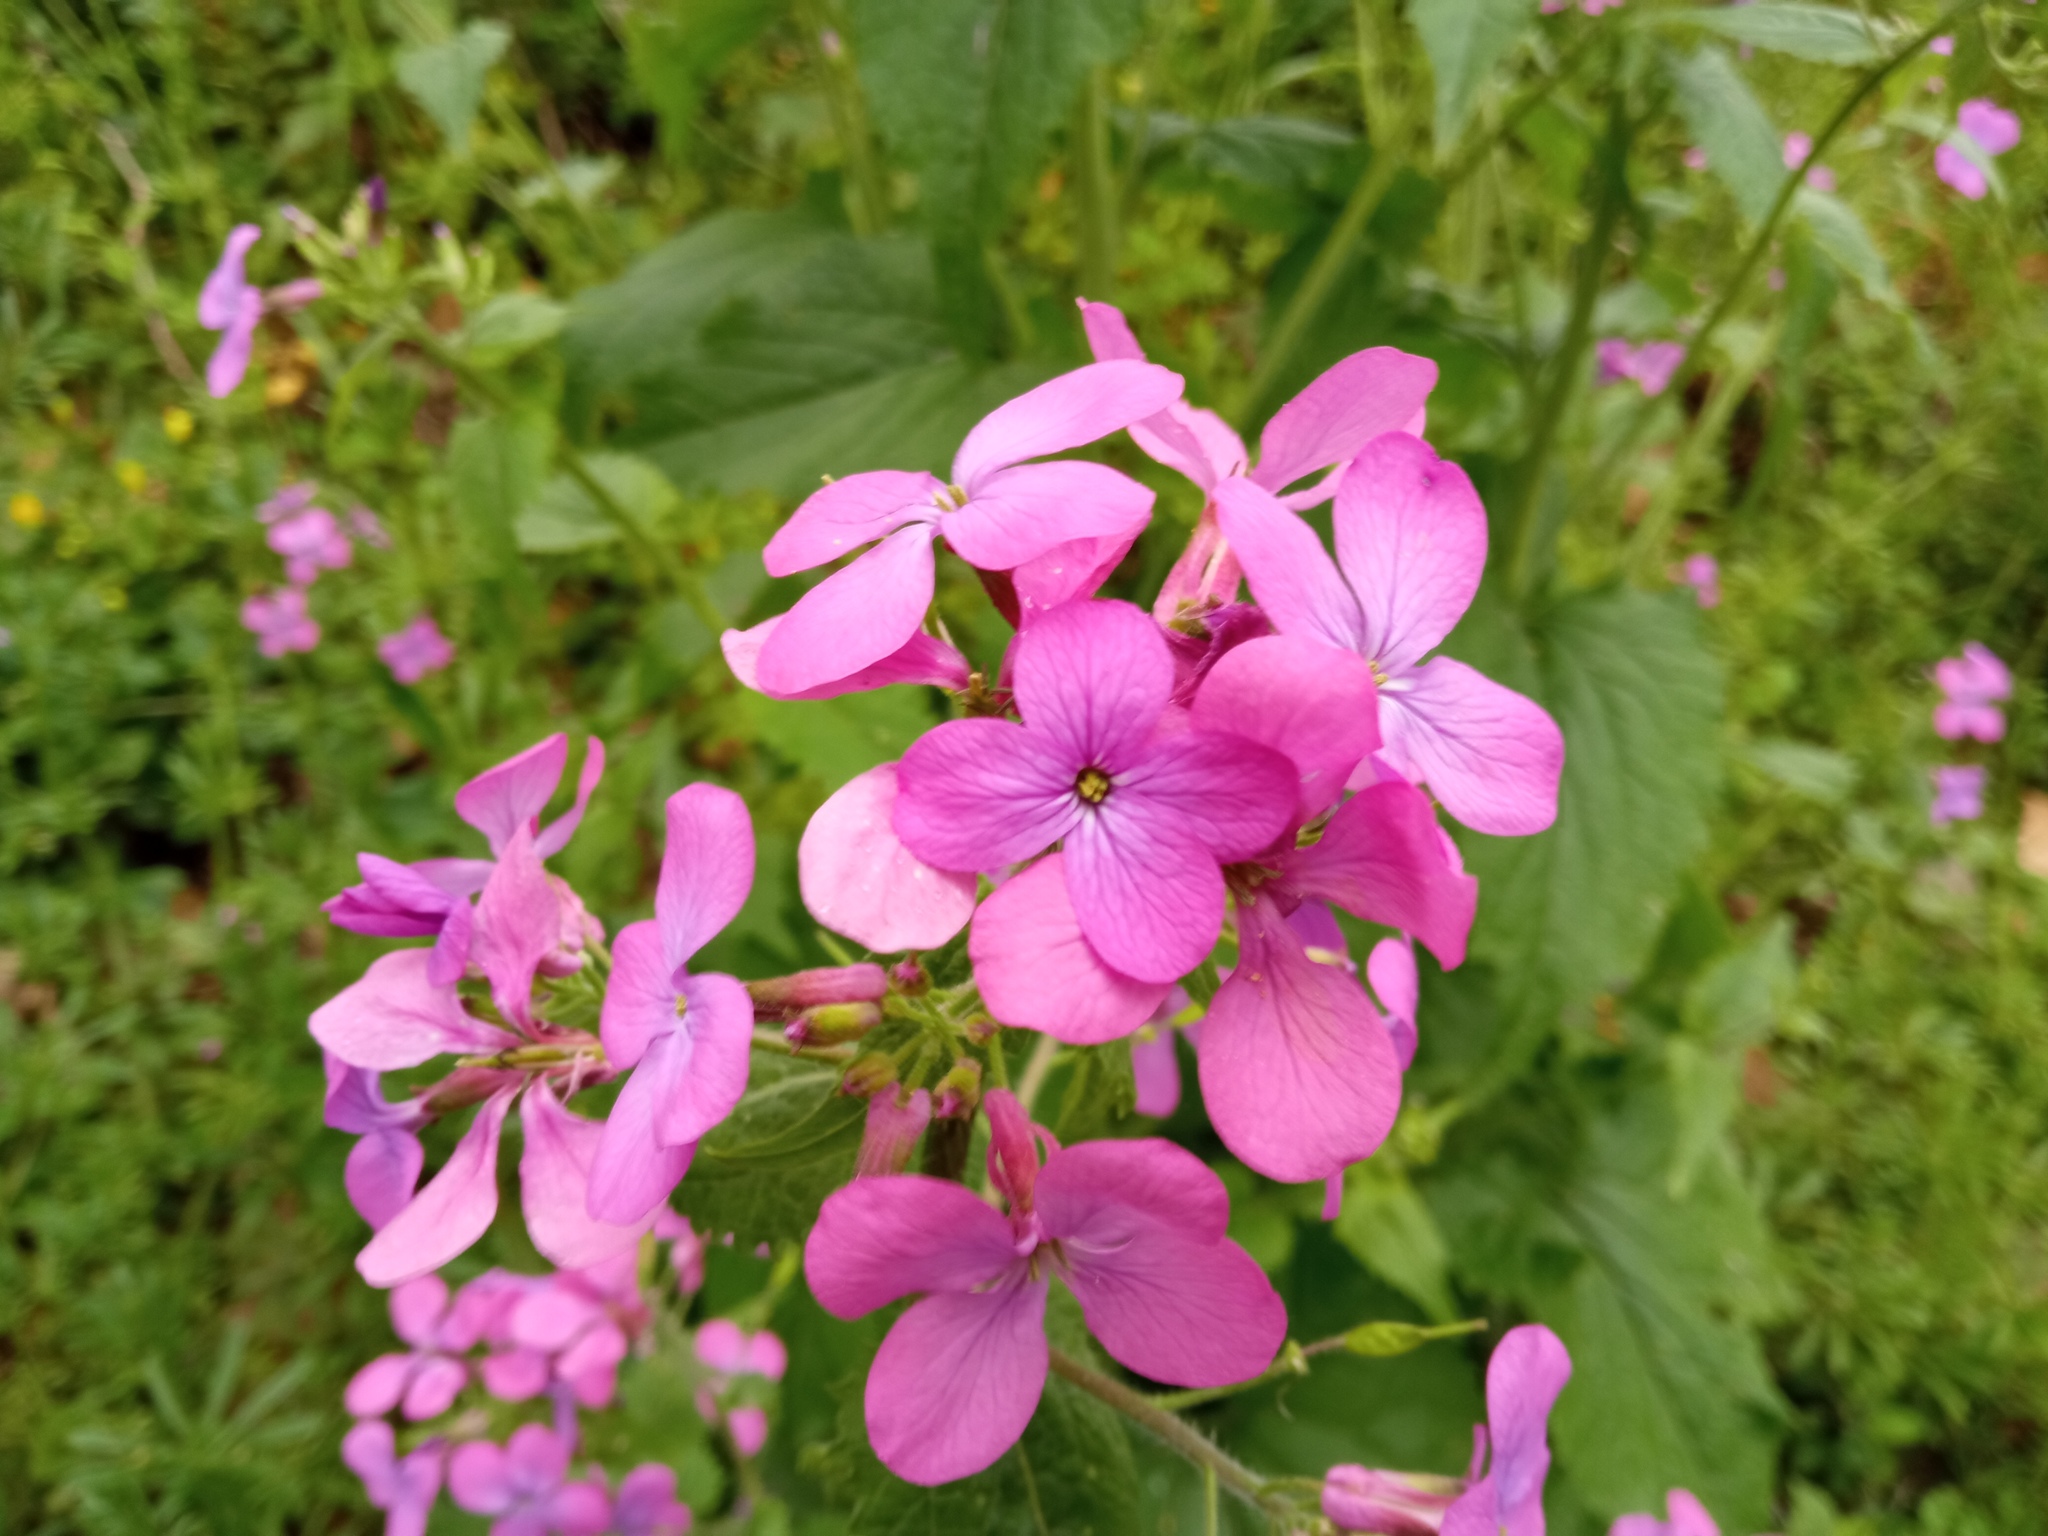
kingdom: Plantae
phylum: Tracheophyta
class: Magnoliopsida
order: Brassicales
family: Brassicaceae
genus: Lunaria
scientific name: Lunaria annua
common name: Honesty
